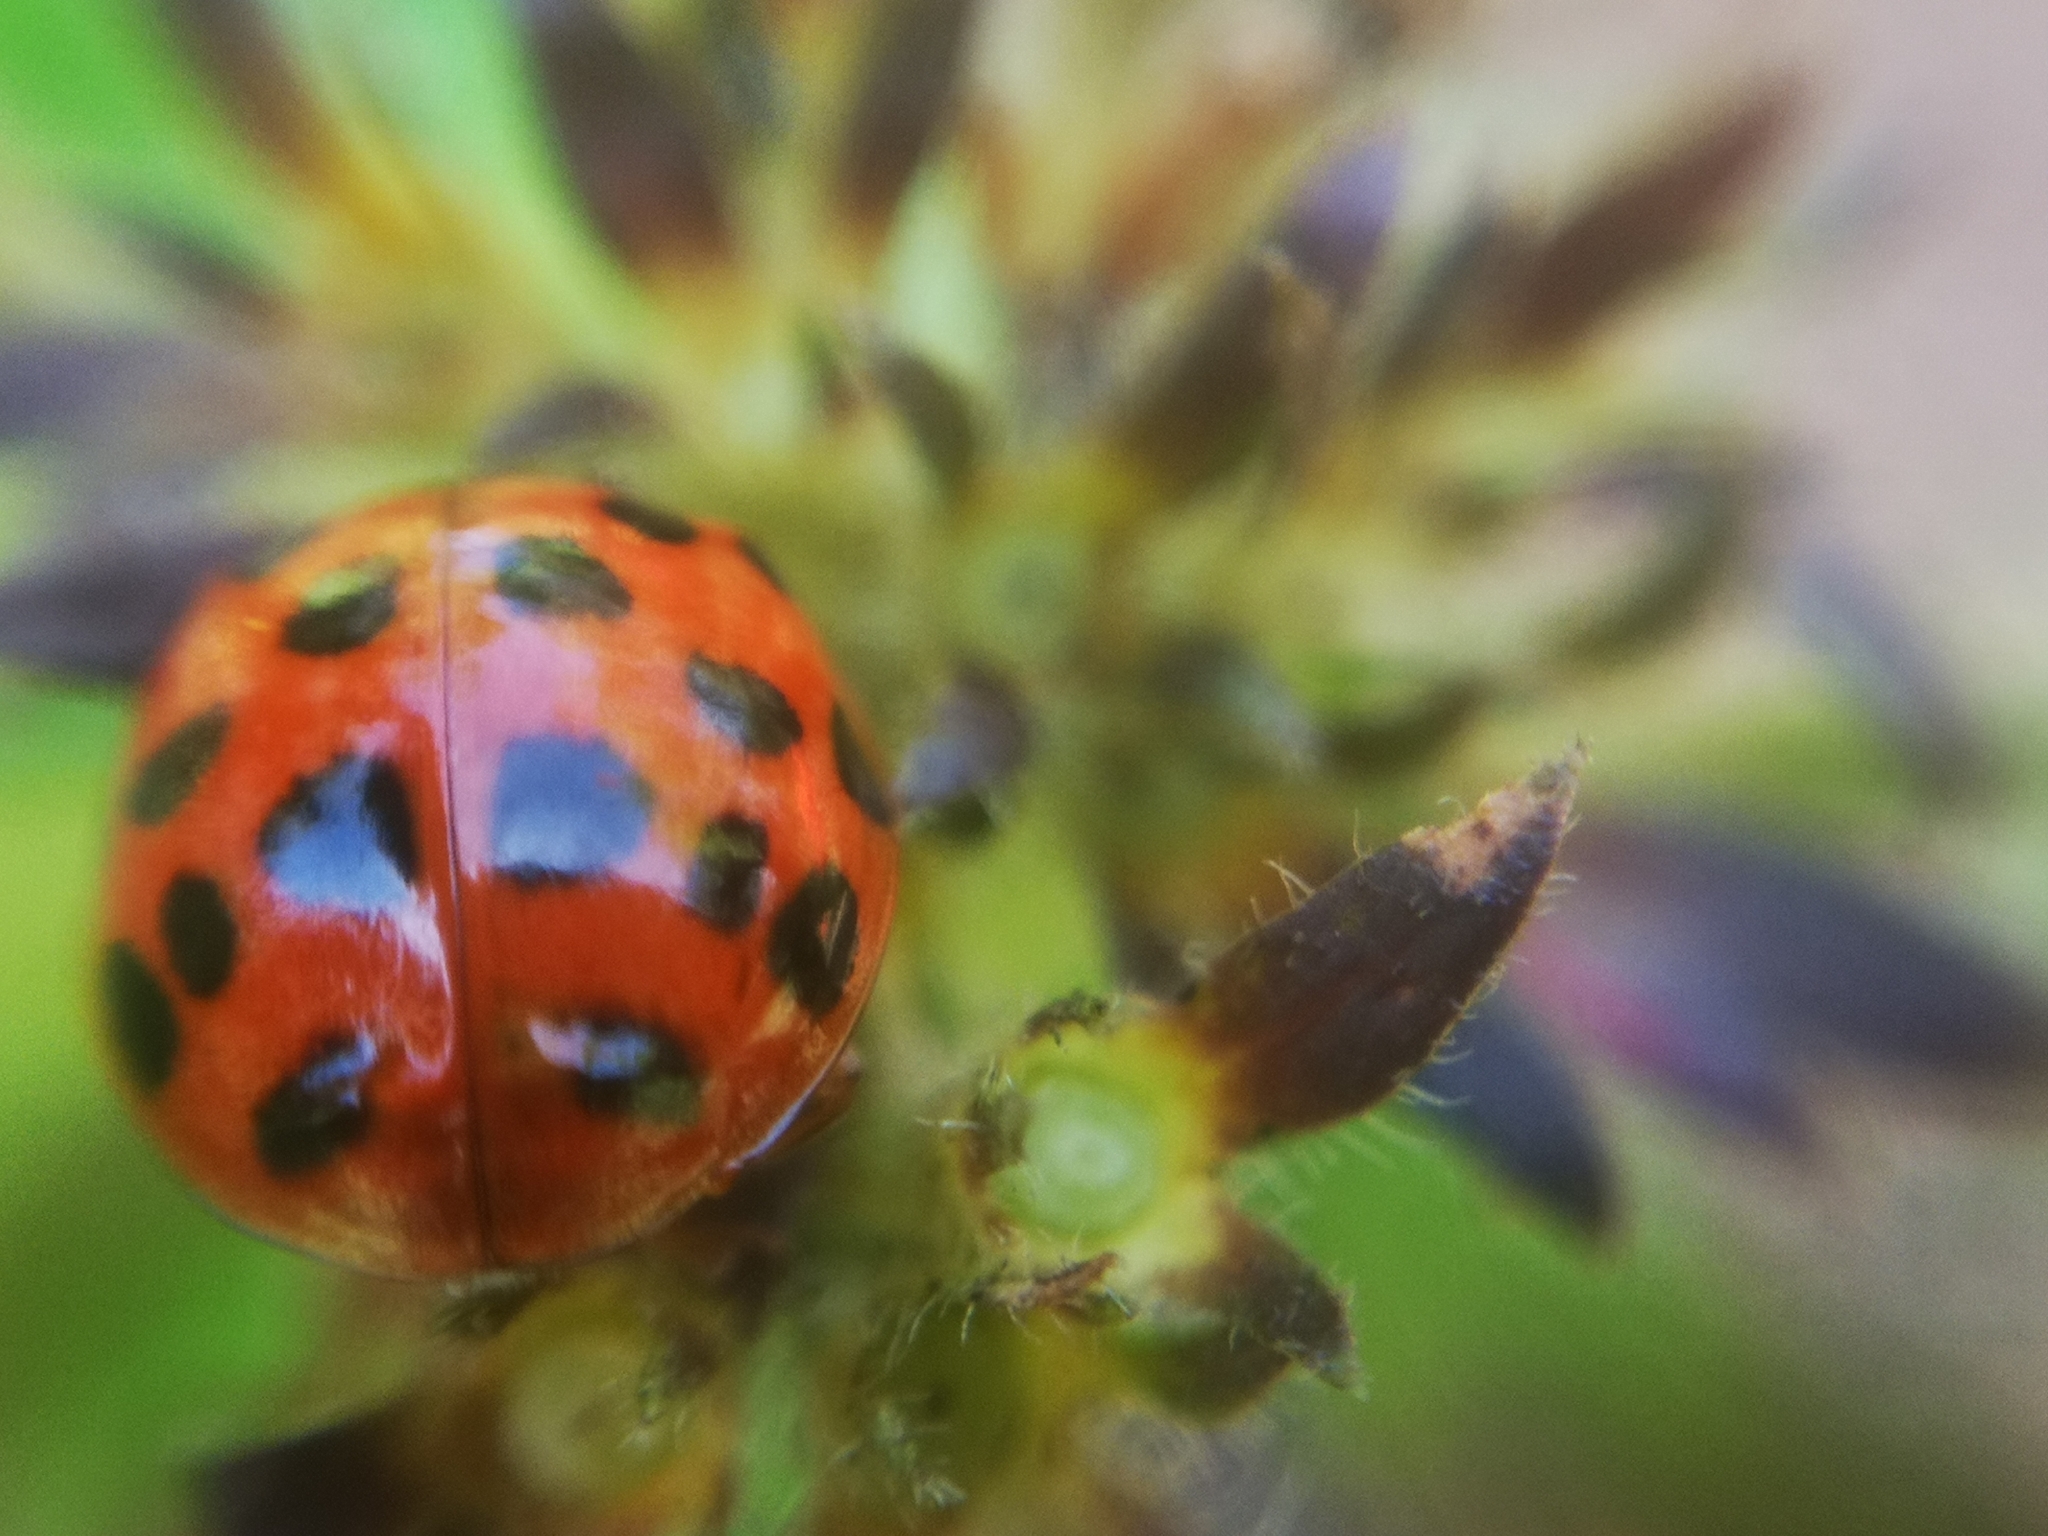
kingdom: Animalia
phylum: Arthropoda
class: Insecta
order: Coleoptera
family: Coccinellidae
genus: Harmonia
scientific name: Harmonia axyridis
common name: Harlequin ladybird
